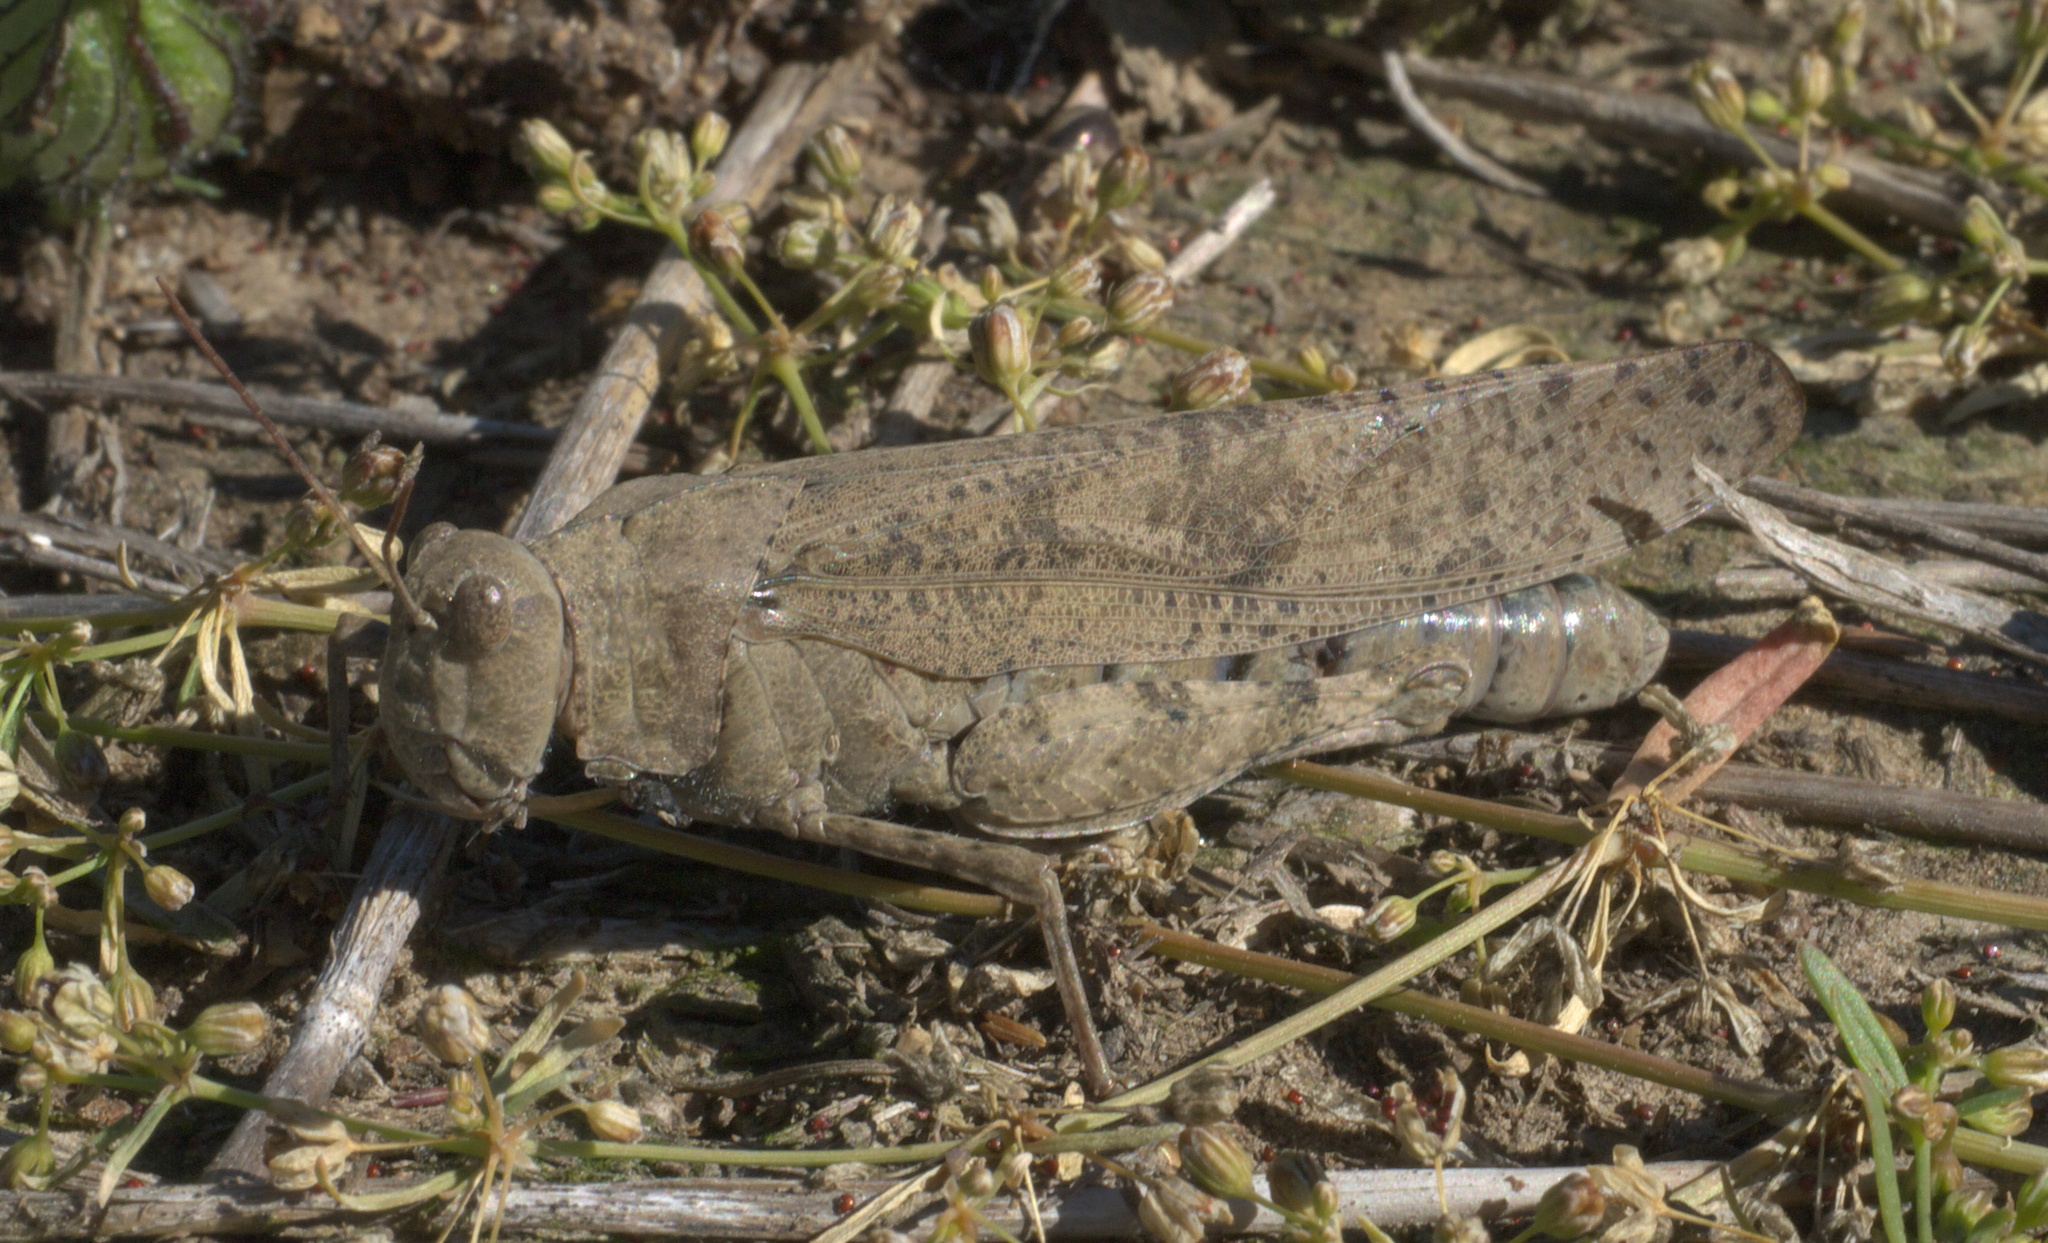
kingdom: Animalia
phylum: Arthropoda
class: Insecta
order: Orthoptera
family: Acrididae
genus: Dissosteira
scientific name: Dissosteira carolina
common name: Carolina grasshopper
